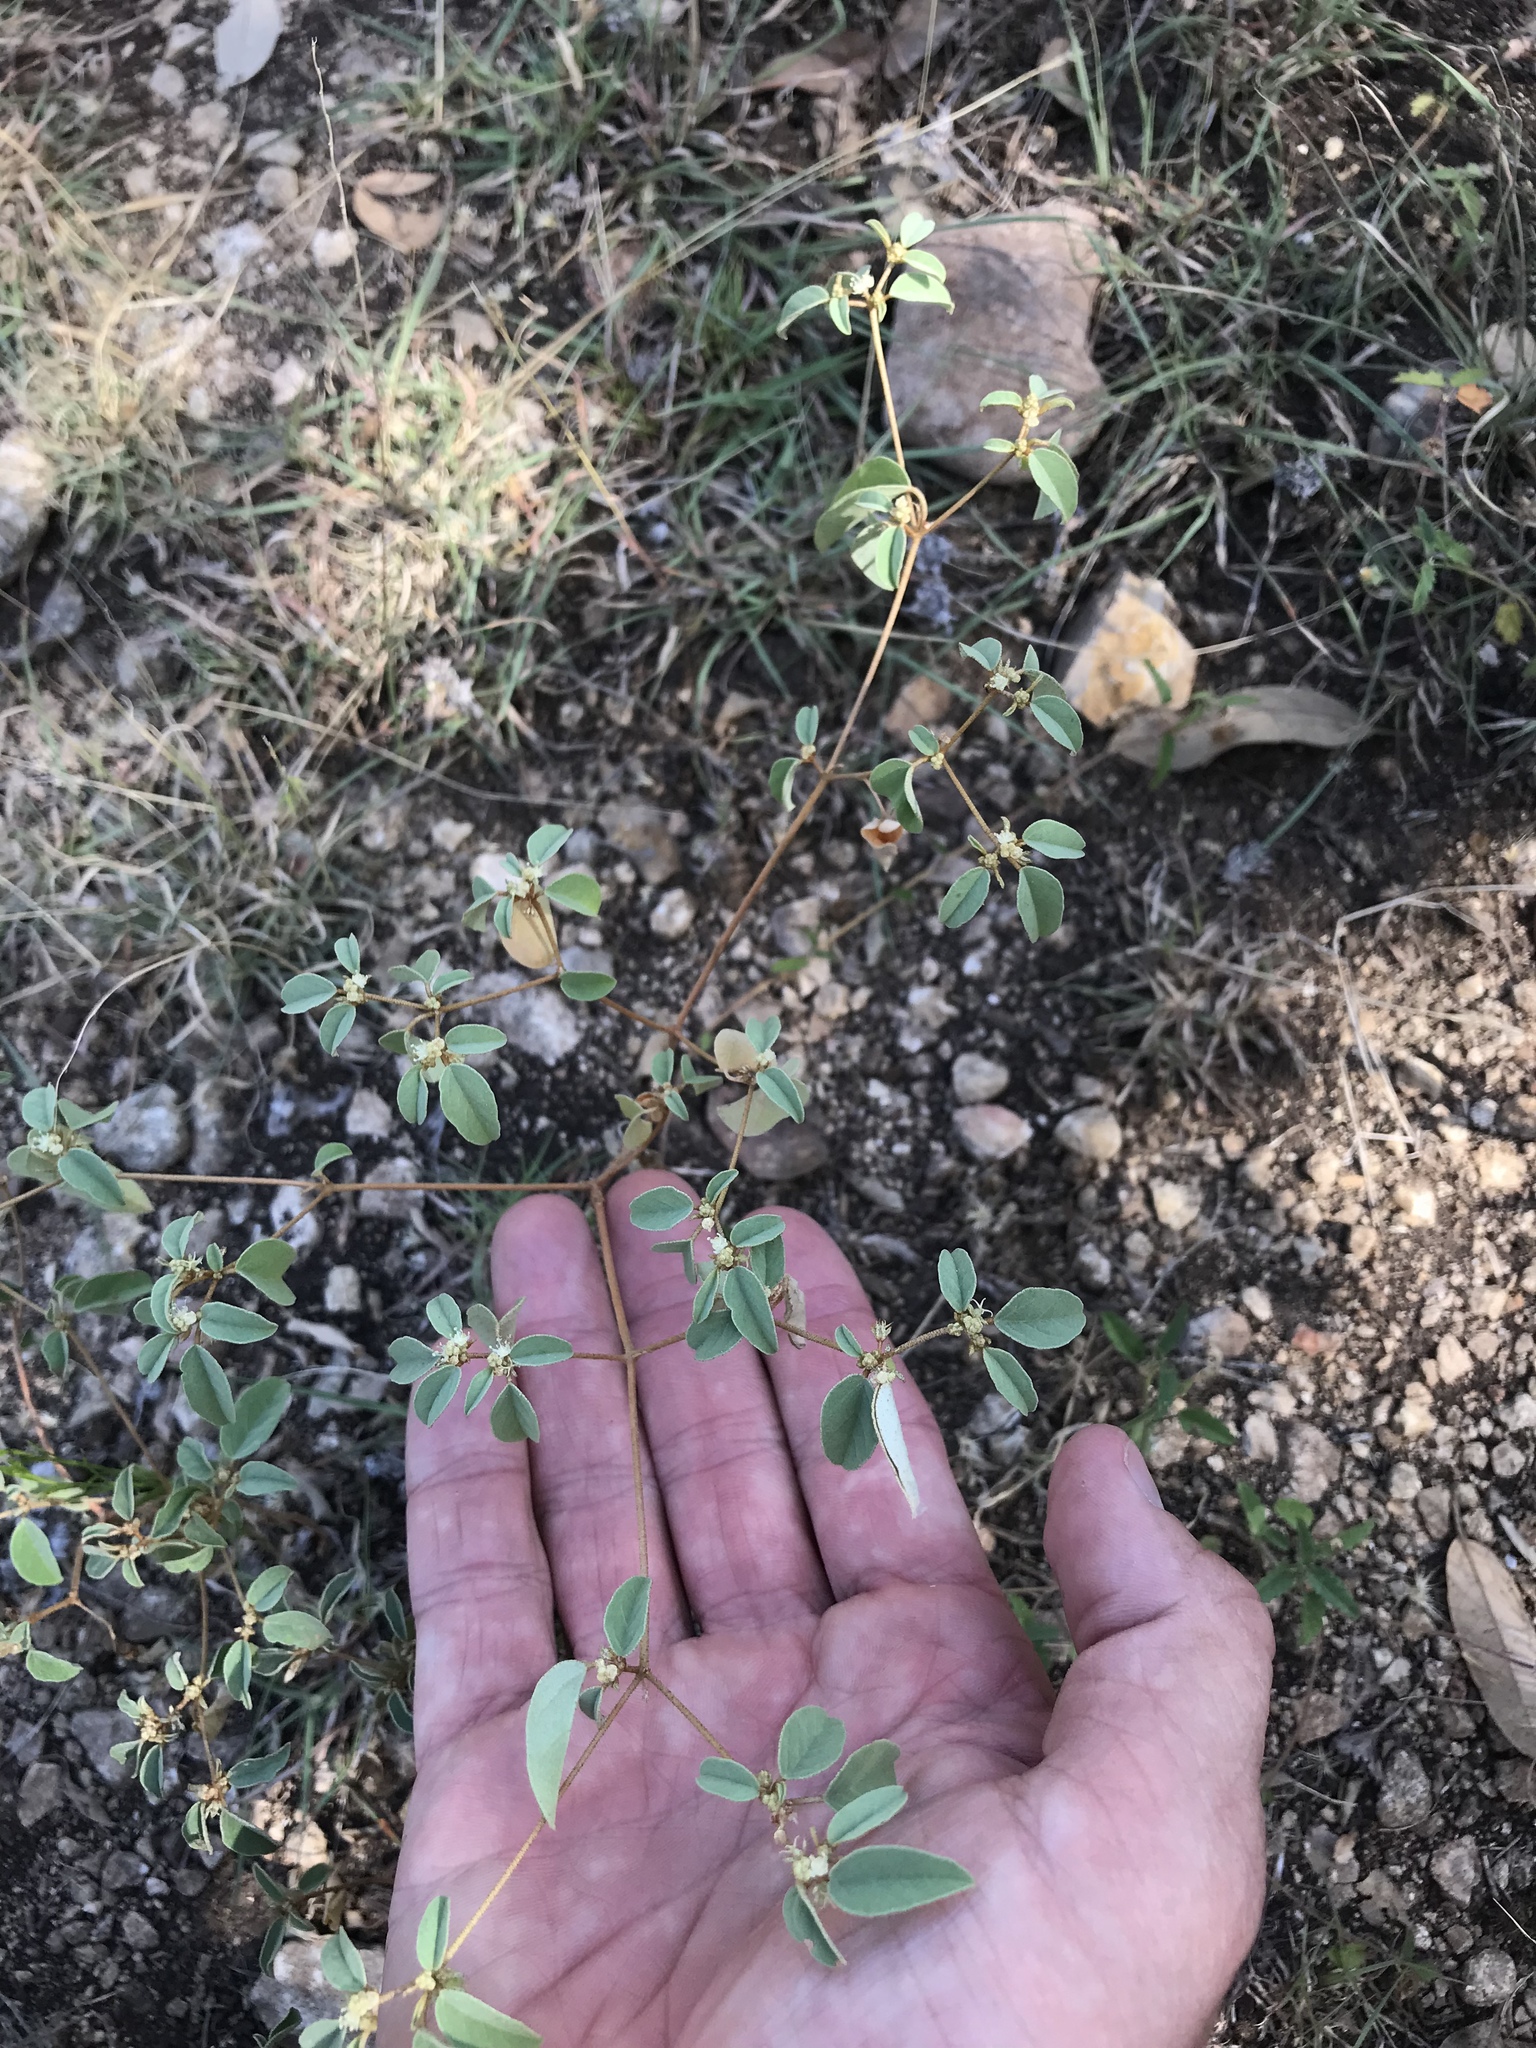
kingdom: Plantae
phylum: Tracheophyta
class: Magnoliopsida
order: Malpighiales
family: Euphorbiaceae
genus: Croton
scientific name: Croton monanthogynus
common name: One-seed croton
